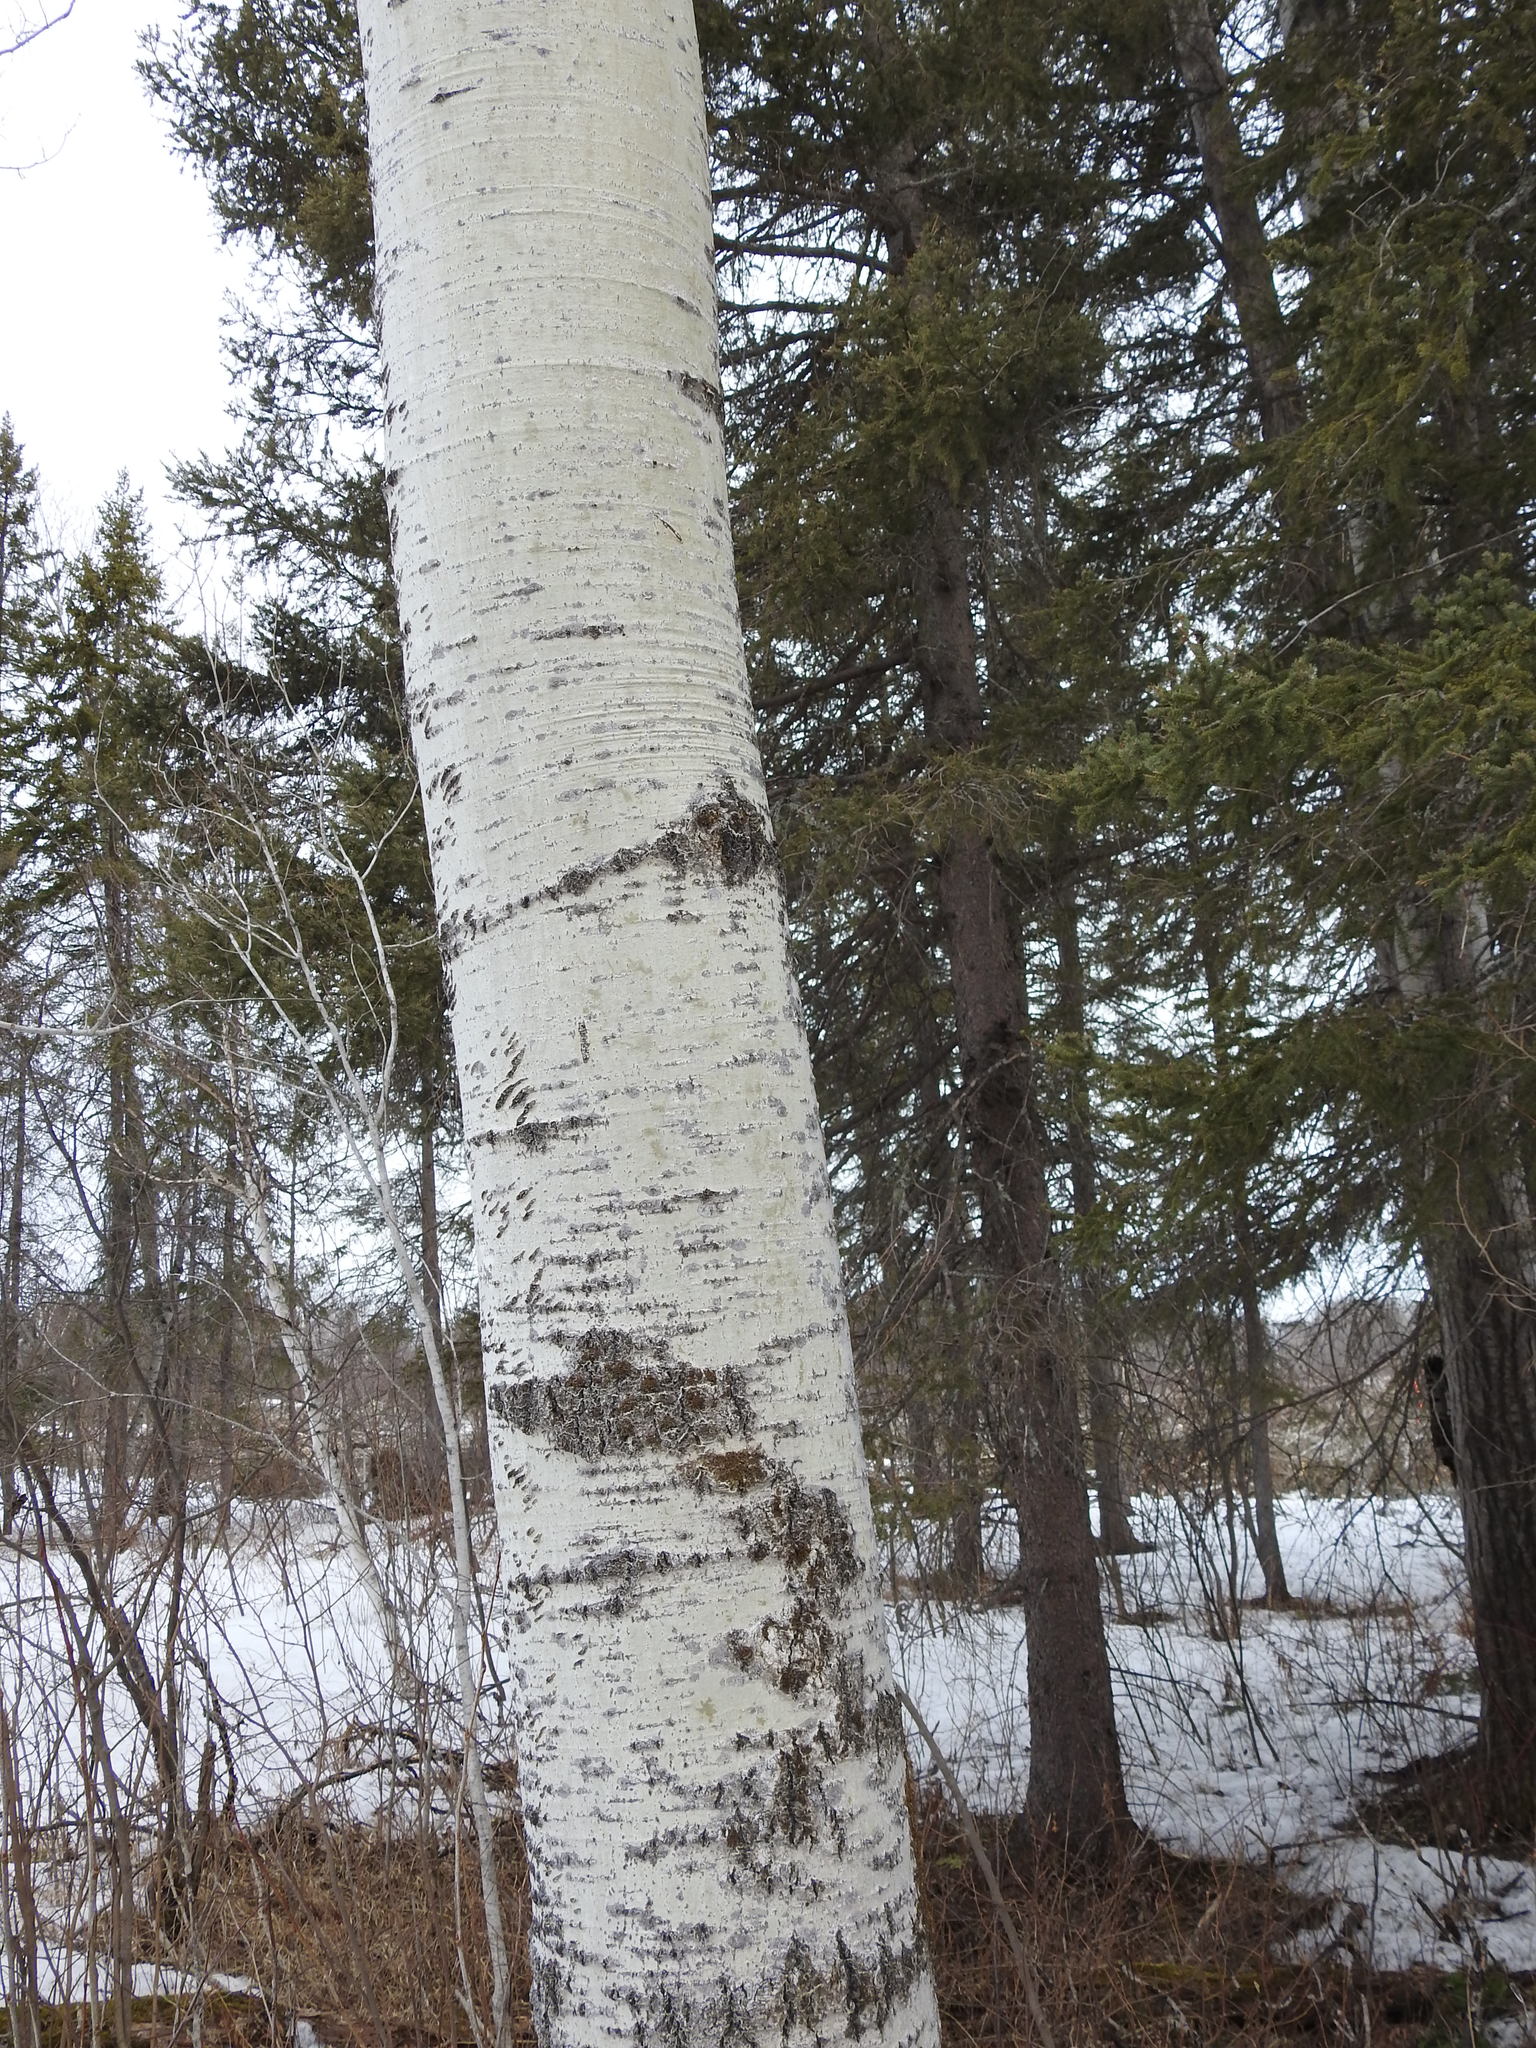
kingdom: Plantae
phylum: Tracheophyta
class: Magnoliopsida
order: Malpighiales
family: Salicaceae
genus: Populus
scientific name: Populus tremuloides
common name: Quaking aspen
